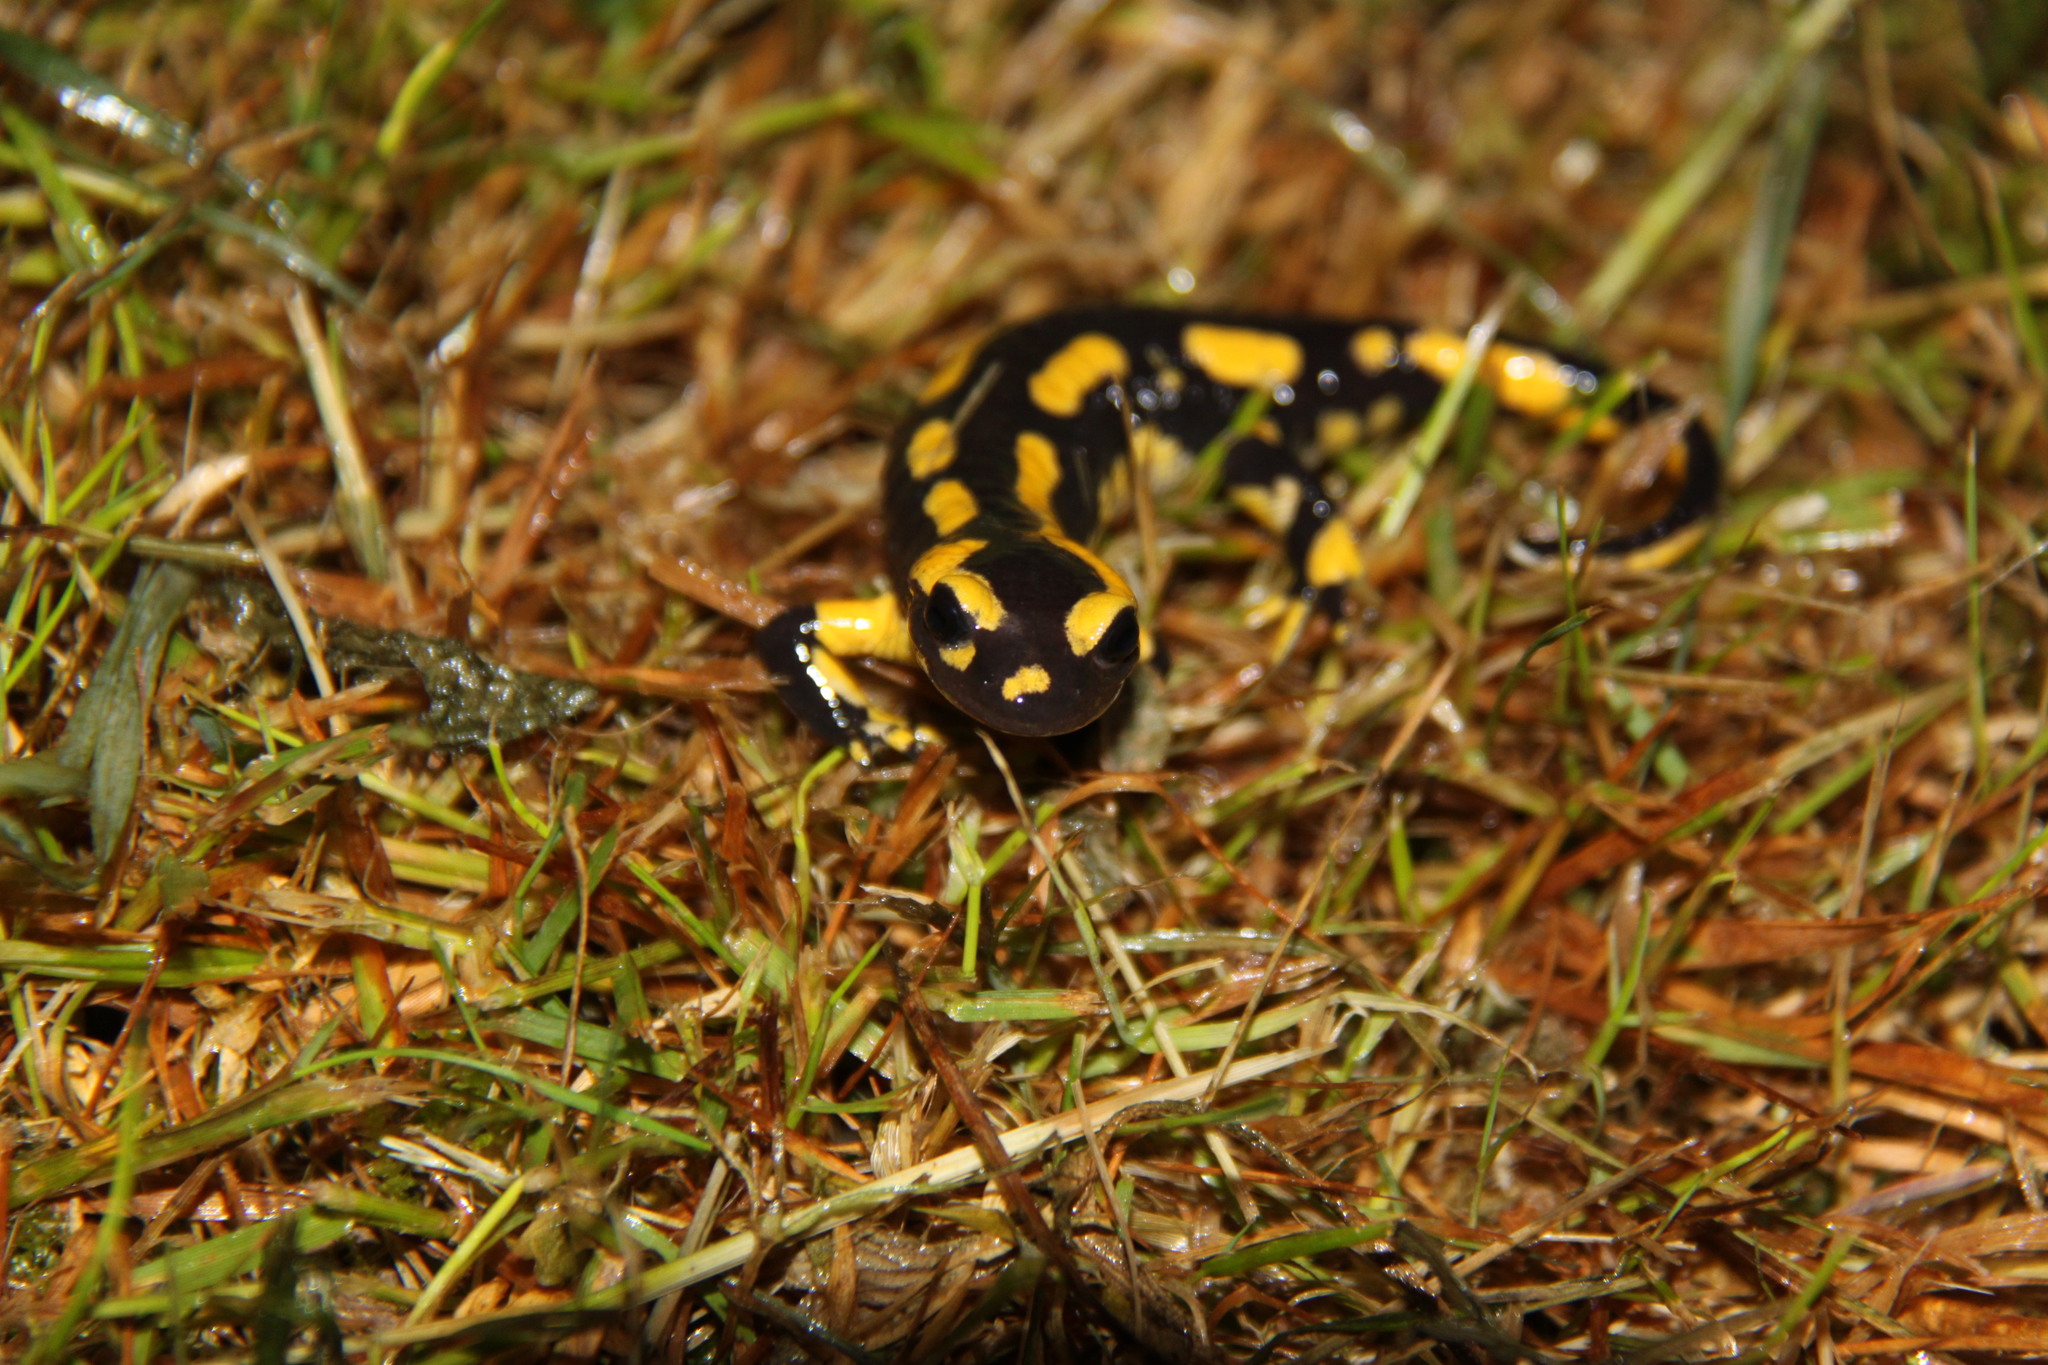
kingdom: Animalia
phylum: Chordata
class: Amphibia
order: Caudata
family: Salamandridae
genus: Salamandra
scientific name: Salamandra salamandra
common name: Fire salamander
